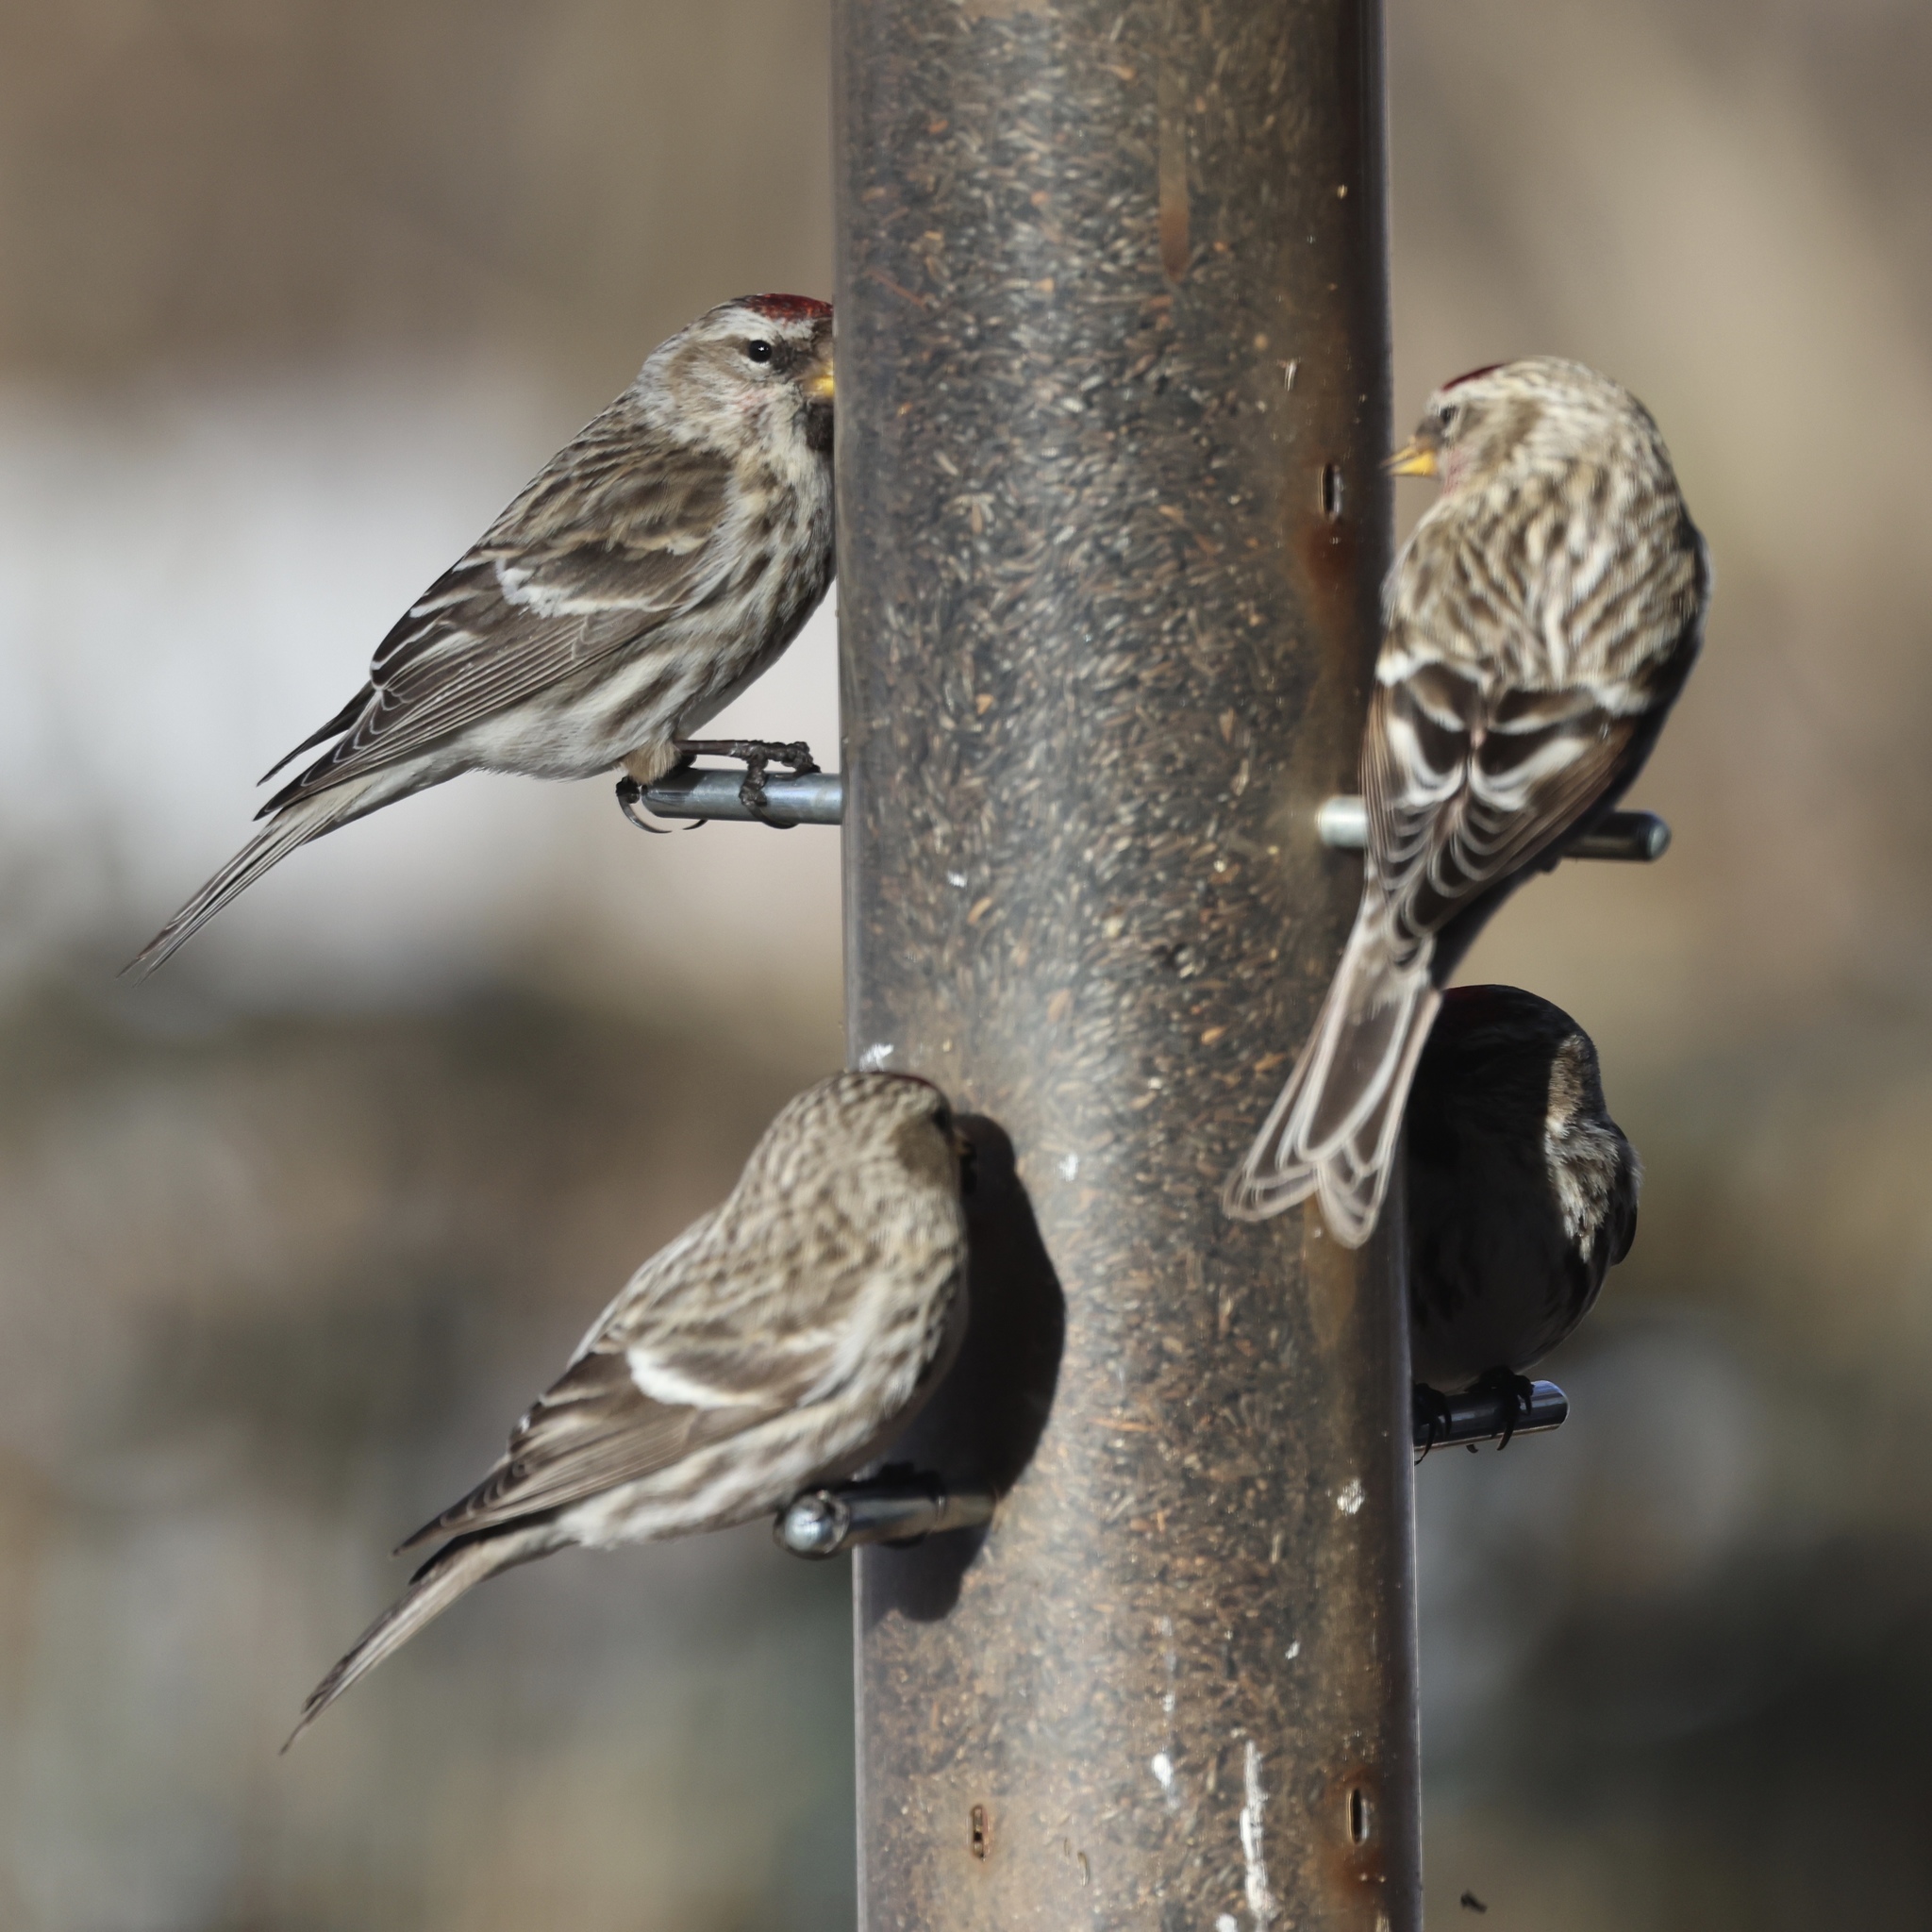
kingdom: Animalia
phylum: Chordata
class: Aves
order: Passeriformes
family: Fringillidae
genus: Acanthis
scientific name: Acanthis flammea
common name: Common redpoll
